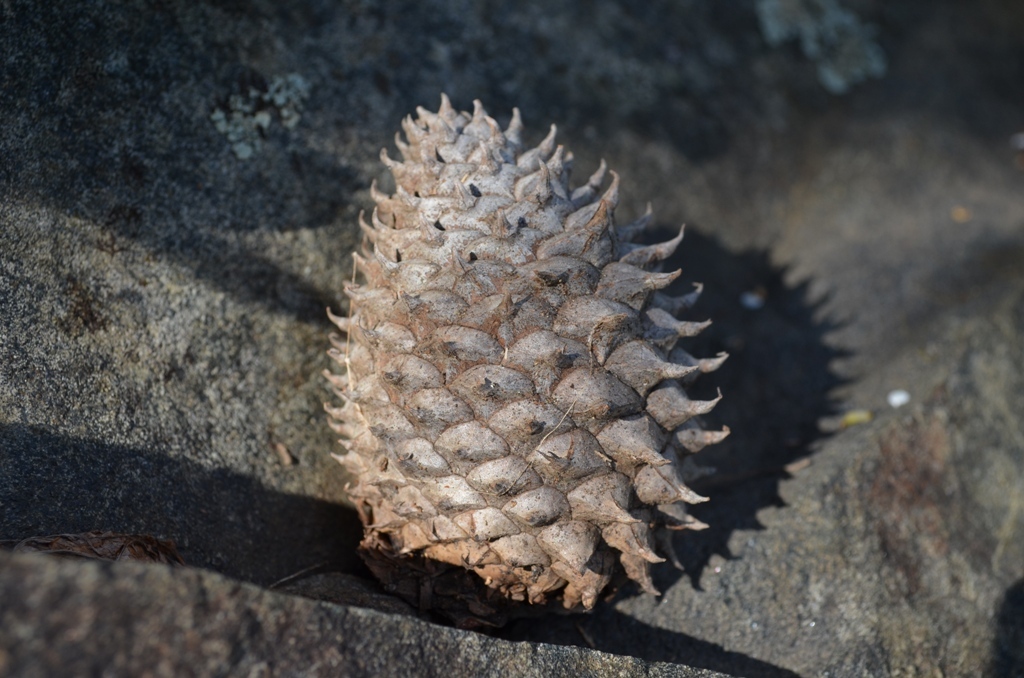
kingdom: Plantae
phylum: Tracheophyta
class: Pinopsida
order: Pinales
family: Pinaceae
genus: Pinus
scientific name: Pinus pungens
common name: Hickory pine
